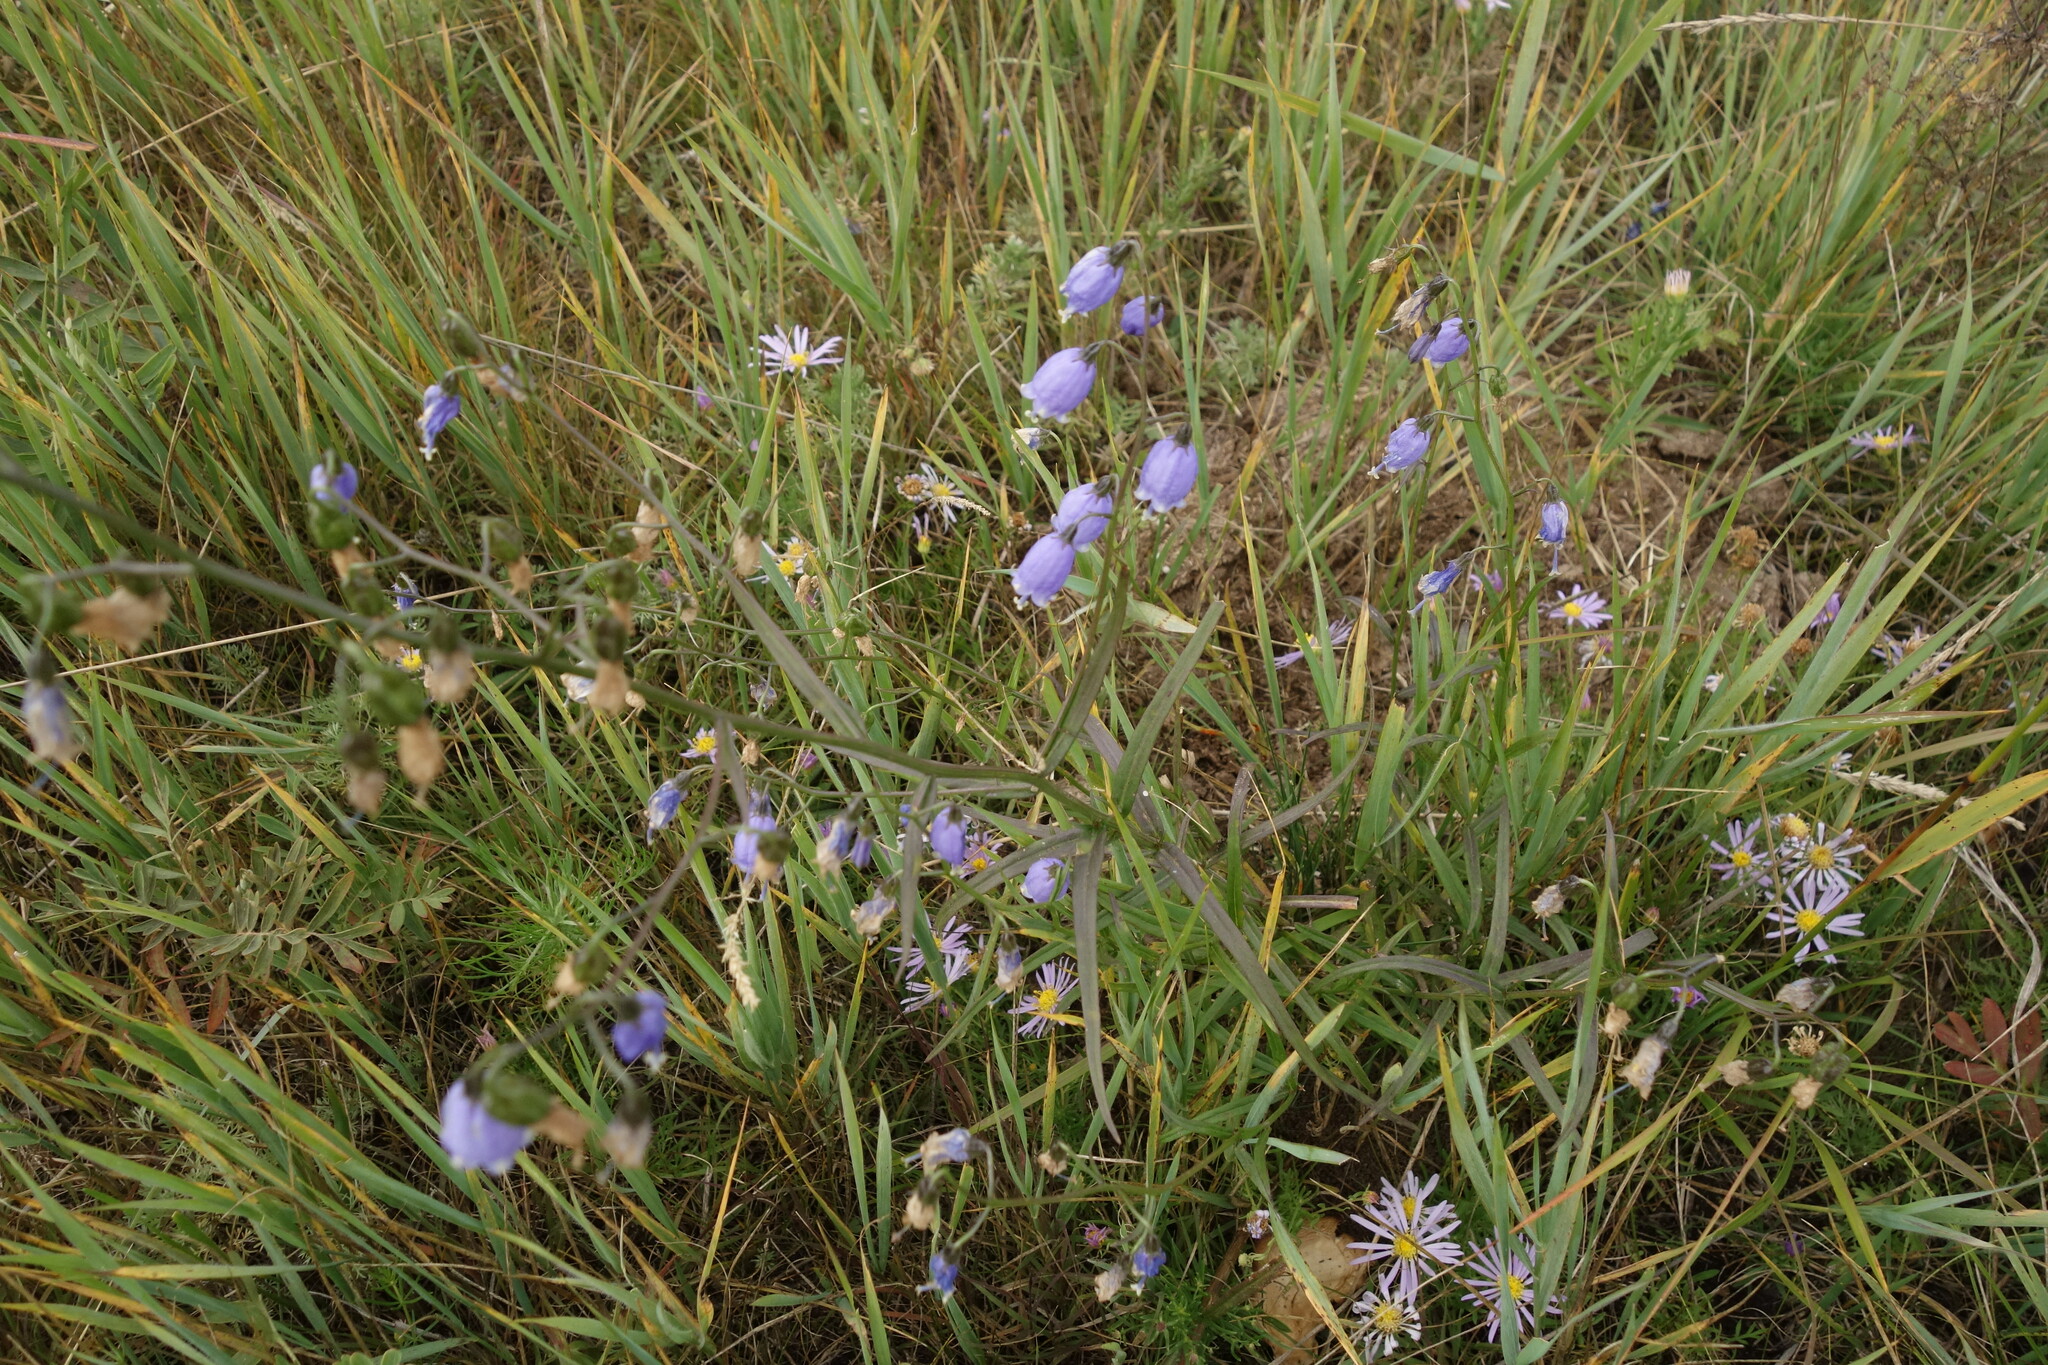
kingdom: Plantae
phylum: Tracheophyta
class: Magnoliopsida
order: Asterales
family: Campanulaceae
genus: Adenophora
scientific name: Adenophora stenanthina
